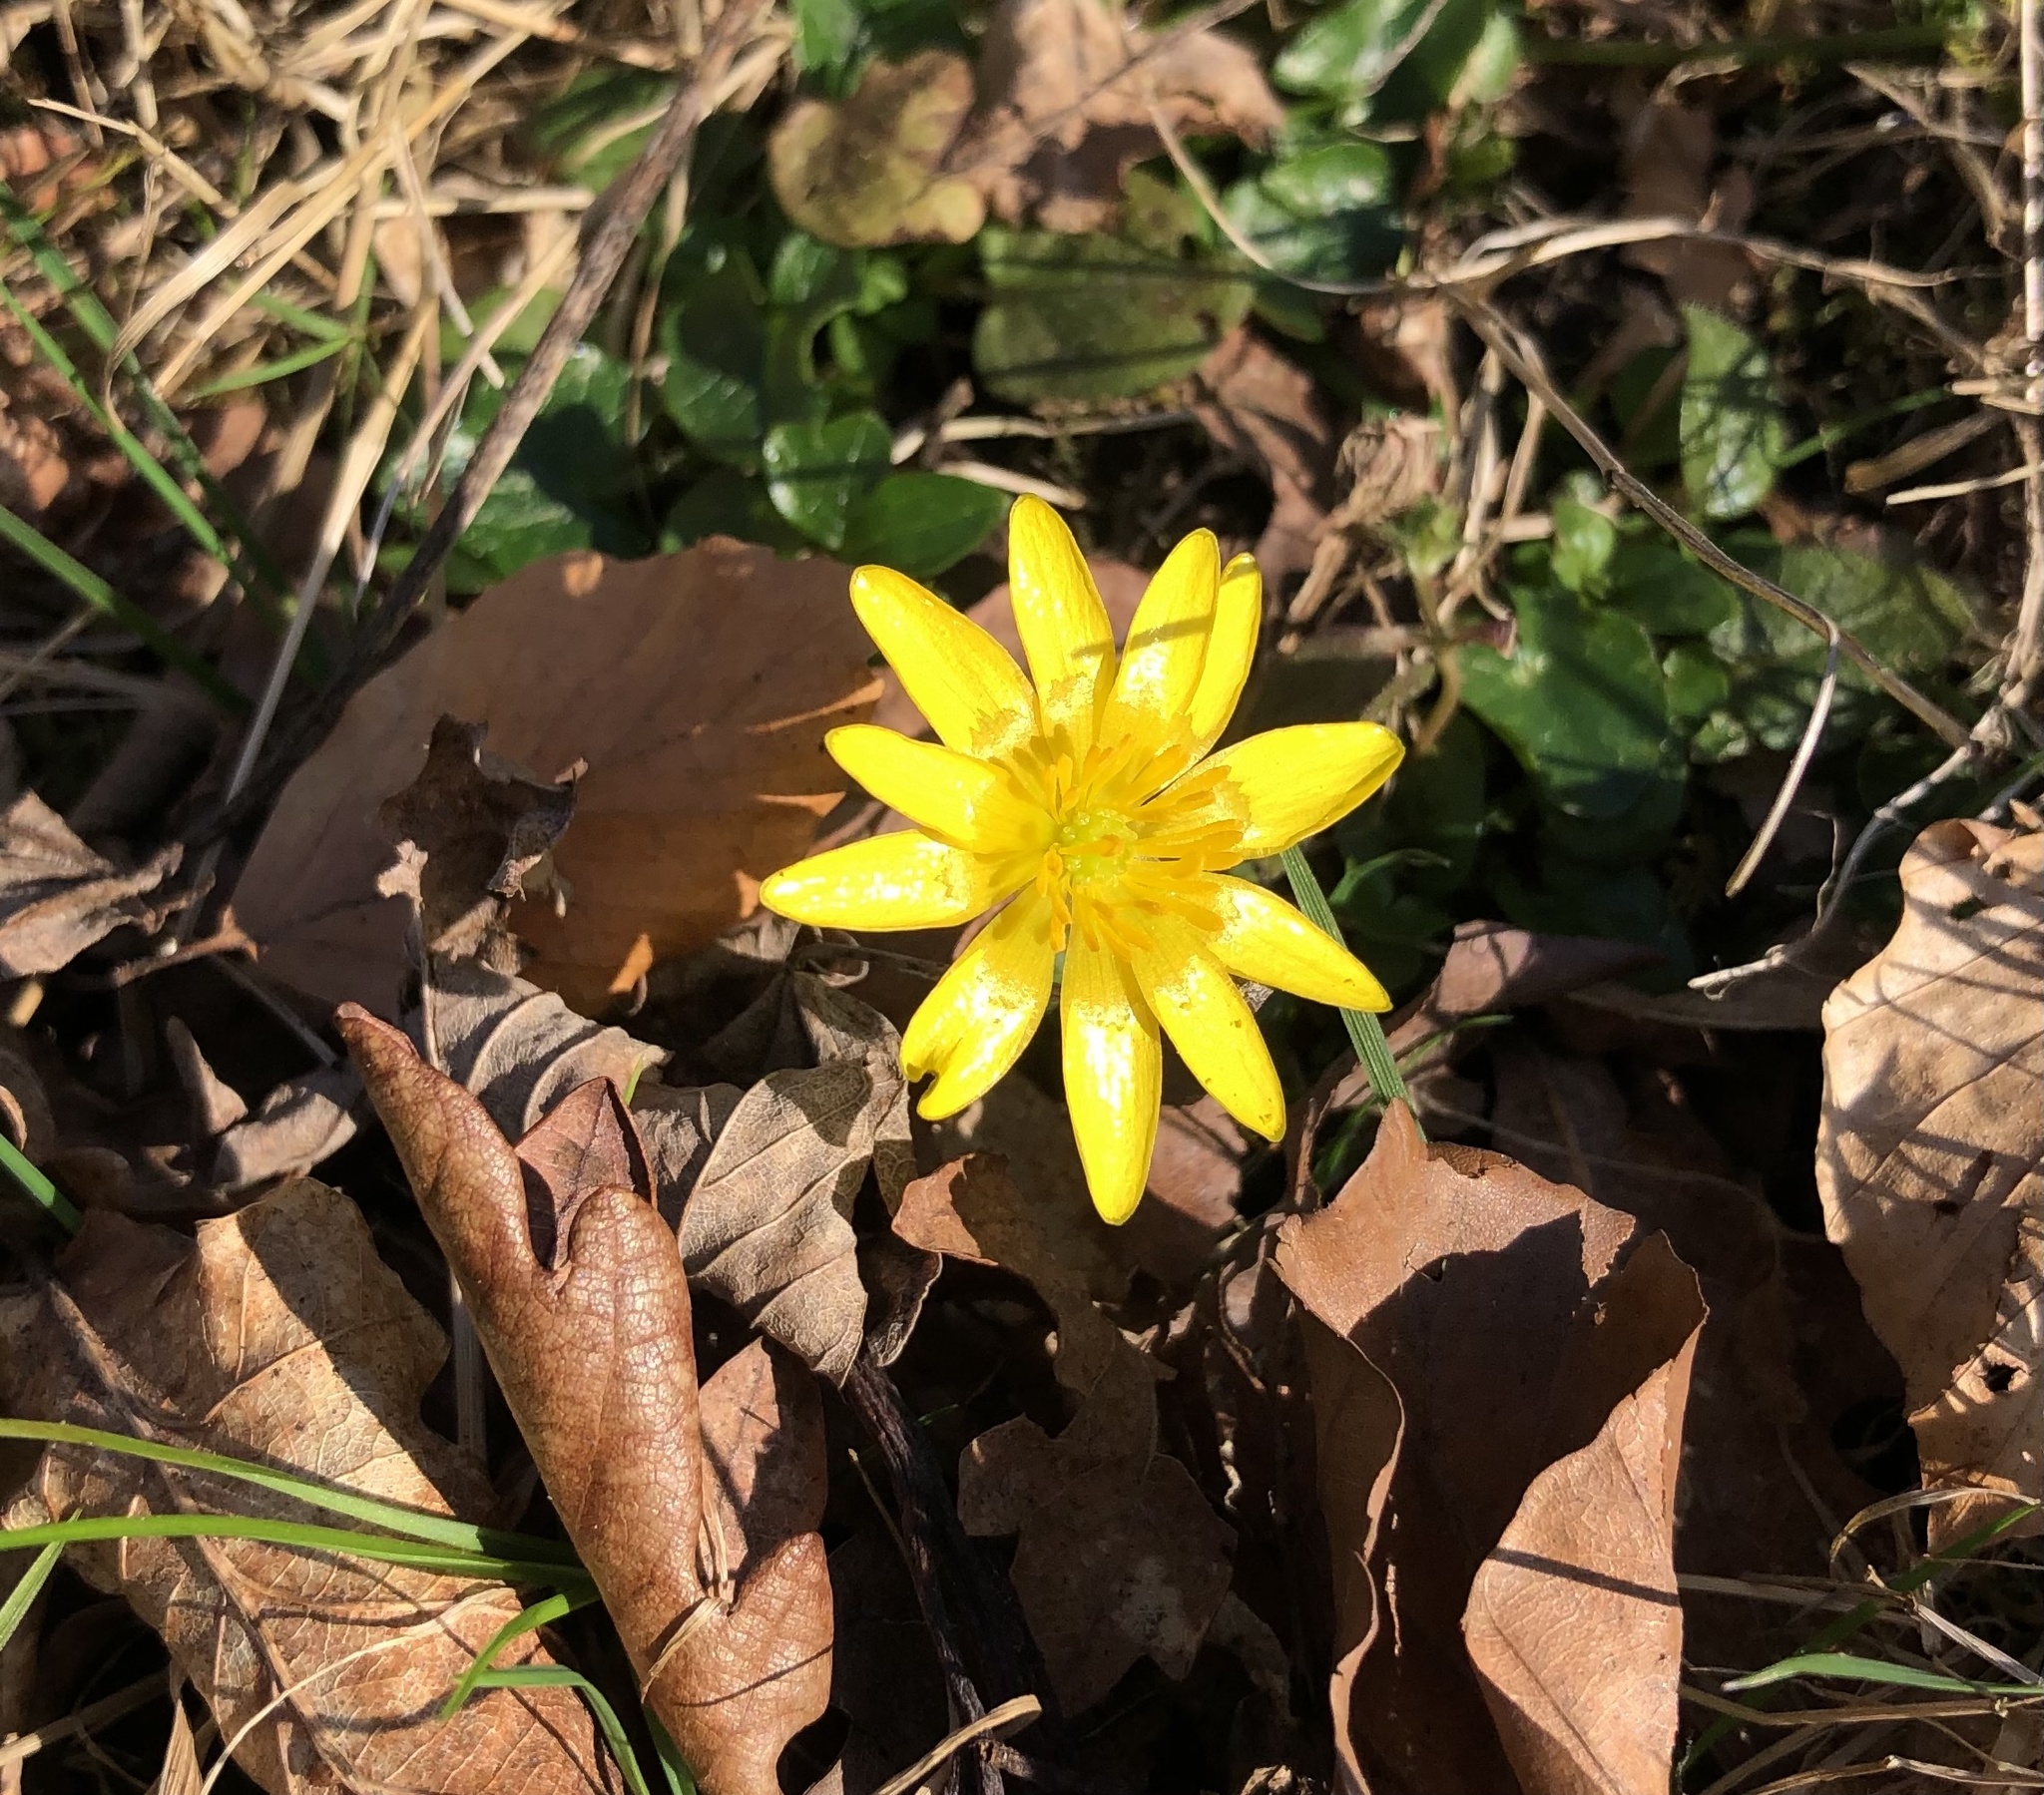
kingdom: Plantae
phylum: Tracheophyta
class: Magnoliopsida
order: Ranunculales
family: Ranunculaceae
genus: Ficaria
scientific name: Ficaria verna
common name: Lesser celandine
